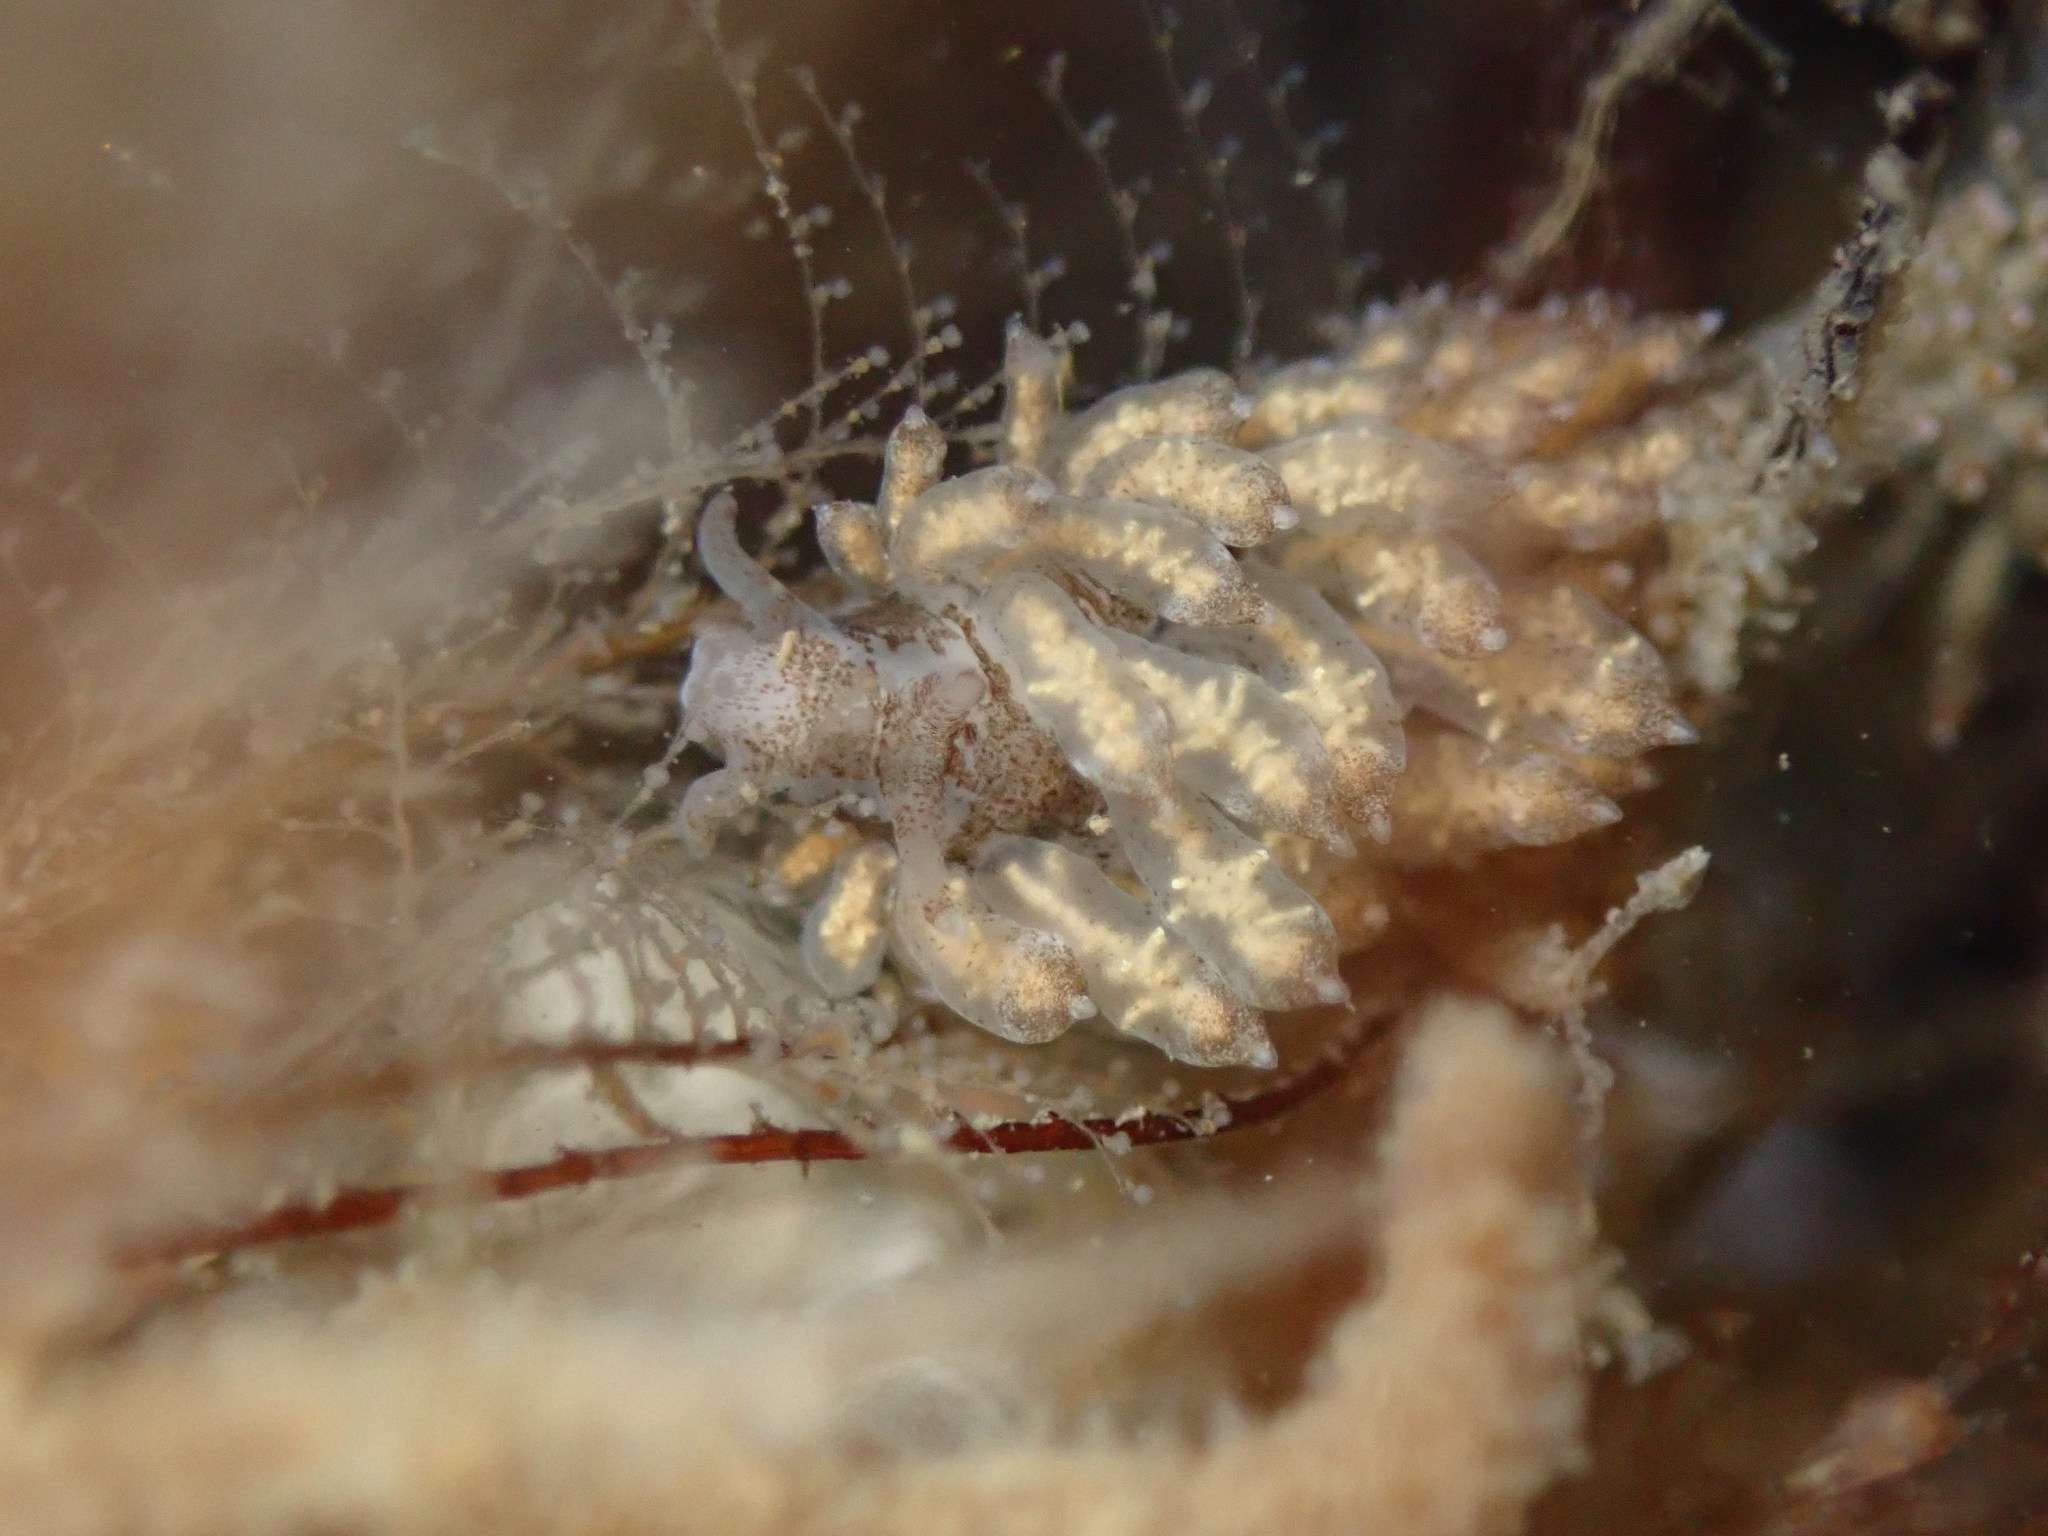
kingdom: Animalia
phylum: Mollusca
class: Gastropoda
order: Nudibranchia
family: Eubranchidae
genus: Eubranchus
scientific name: Eubranchus rustyus
